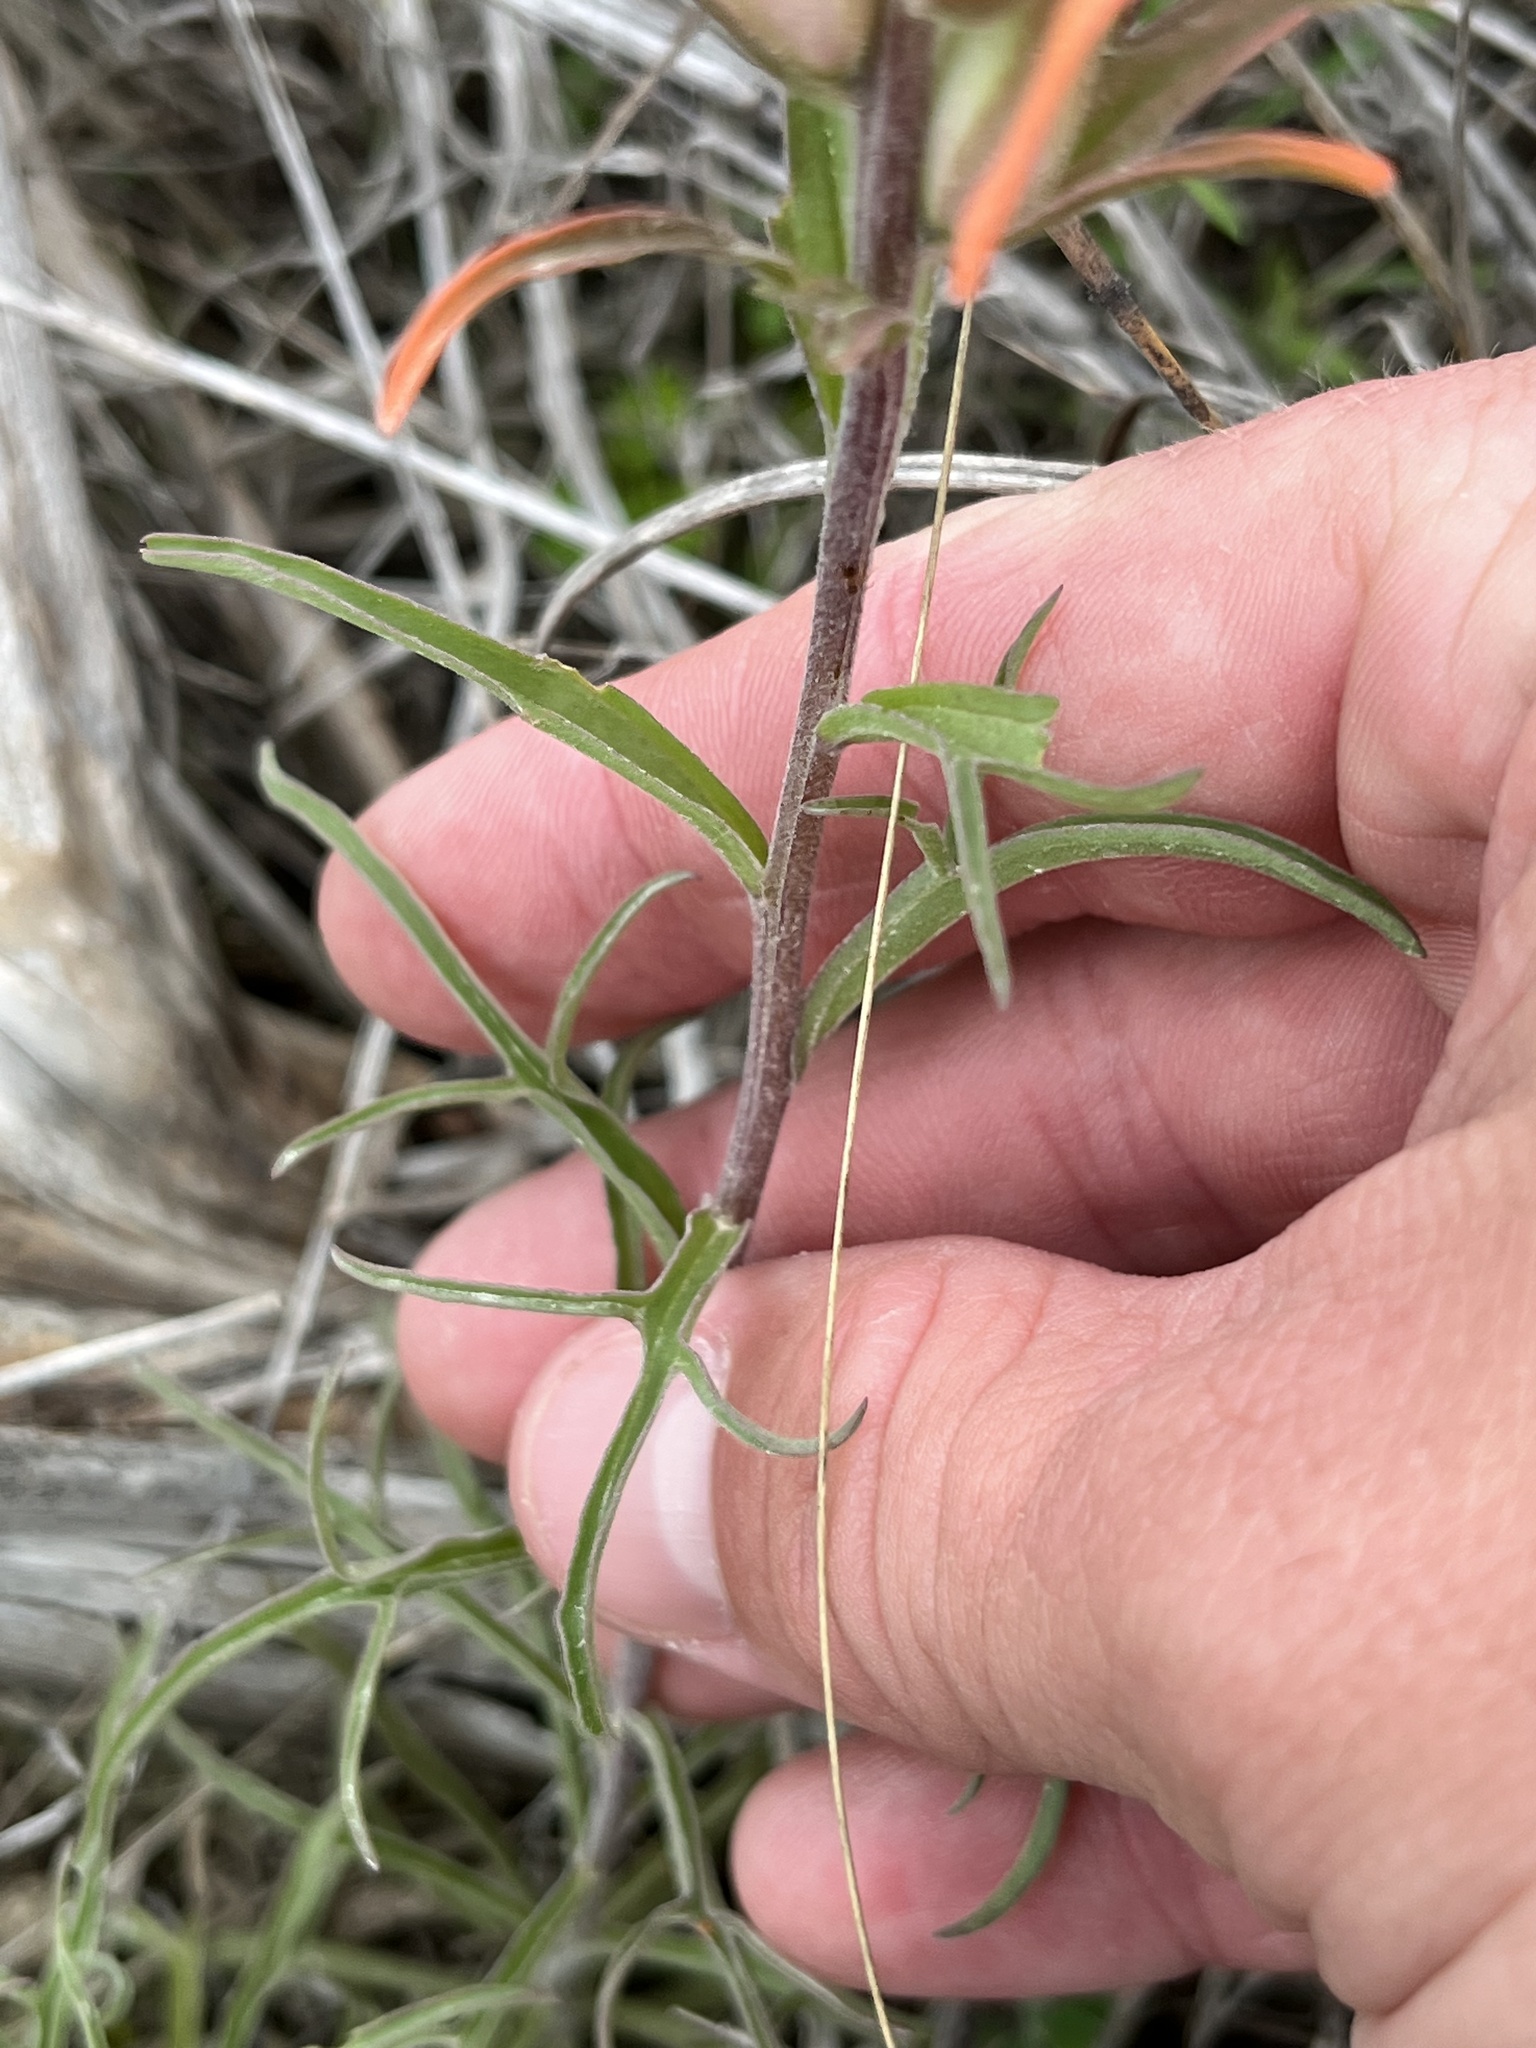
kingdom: Plantae
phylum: Tracheophyta
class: Magnoliopsida
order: Lamiales
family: Orobanchaceae
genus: Castilleja
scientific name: Castilleja lindheimeri
